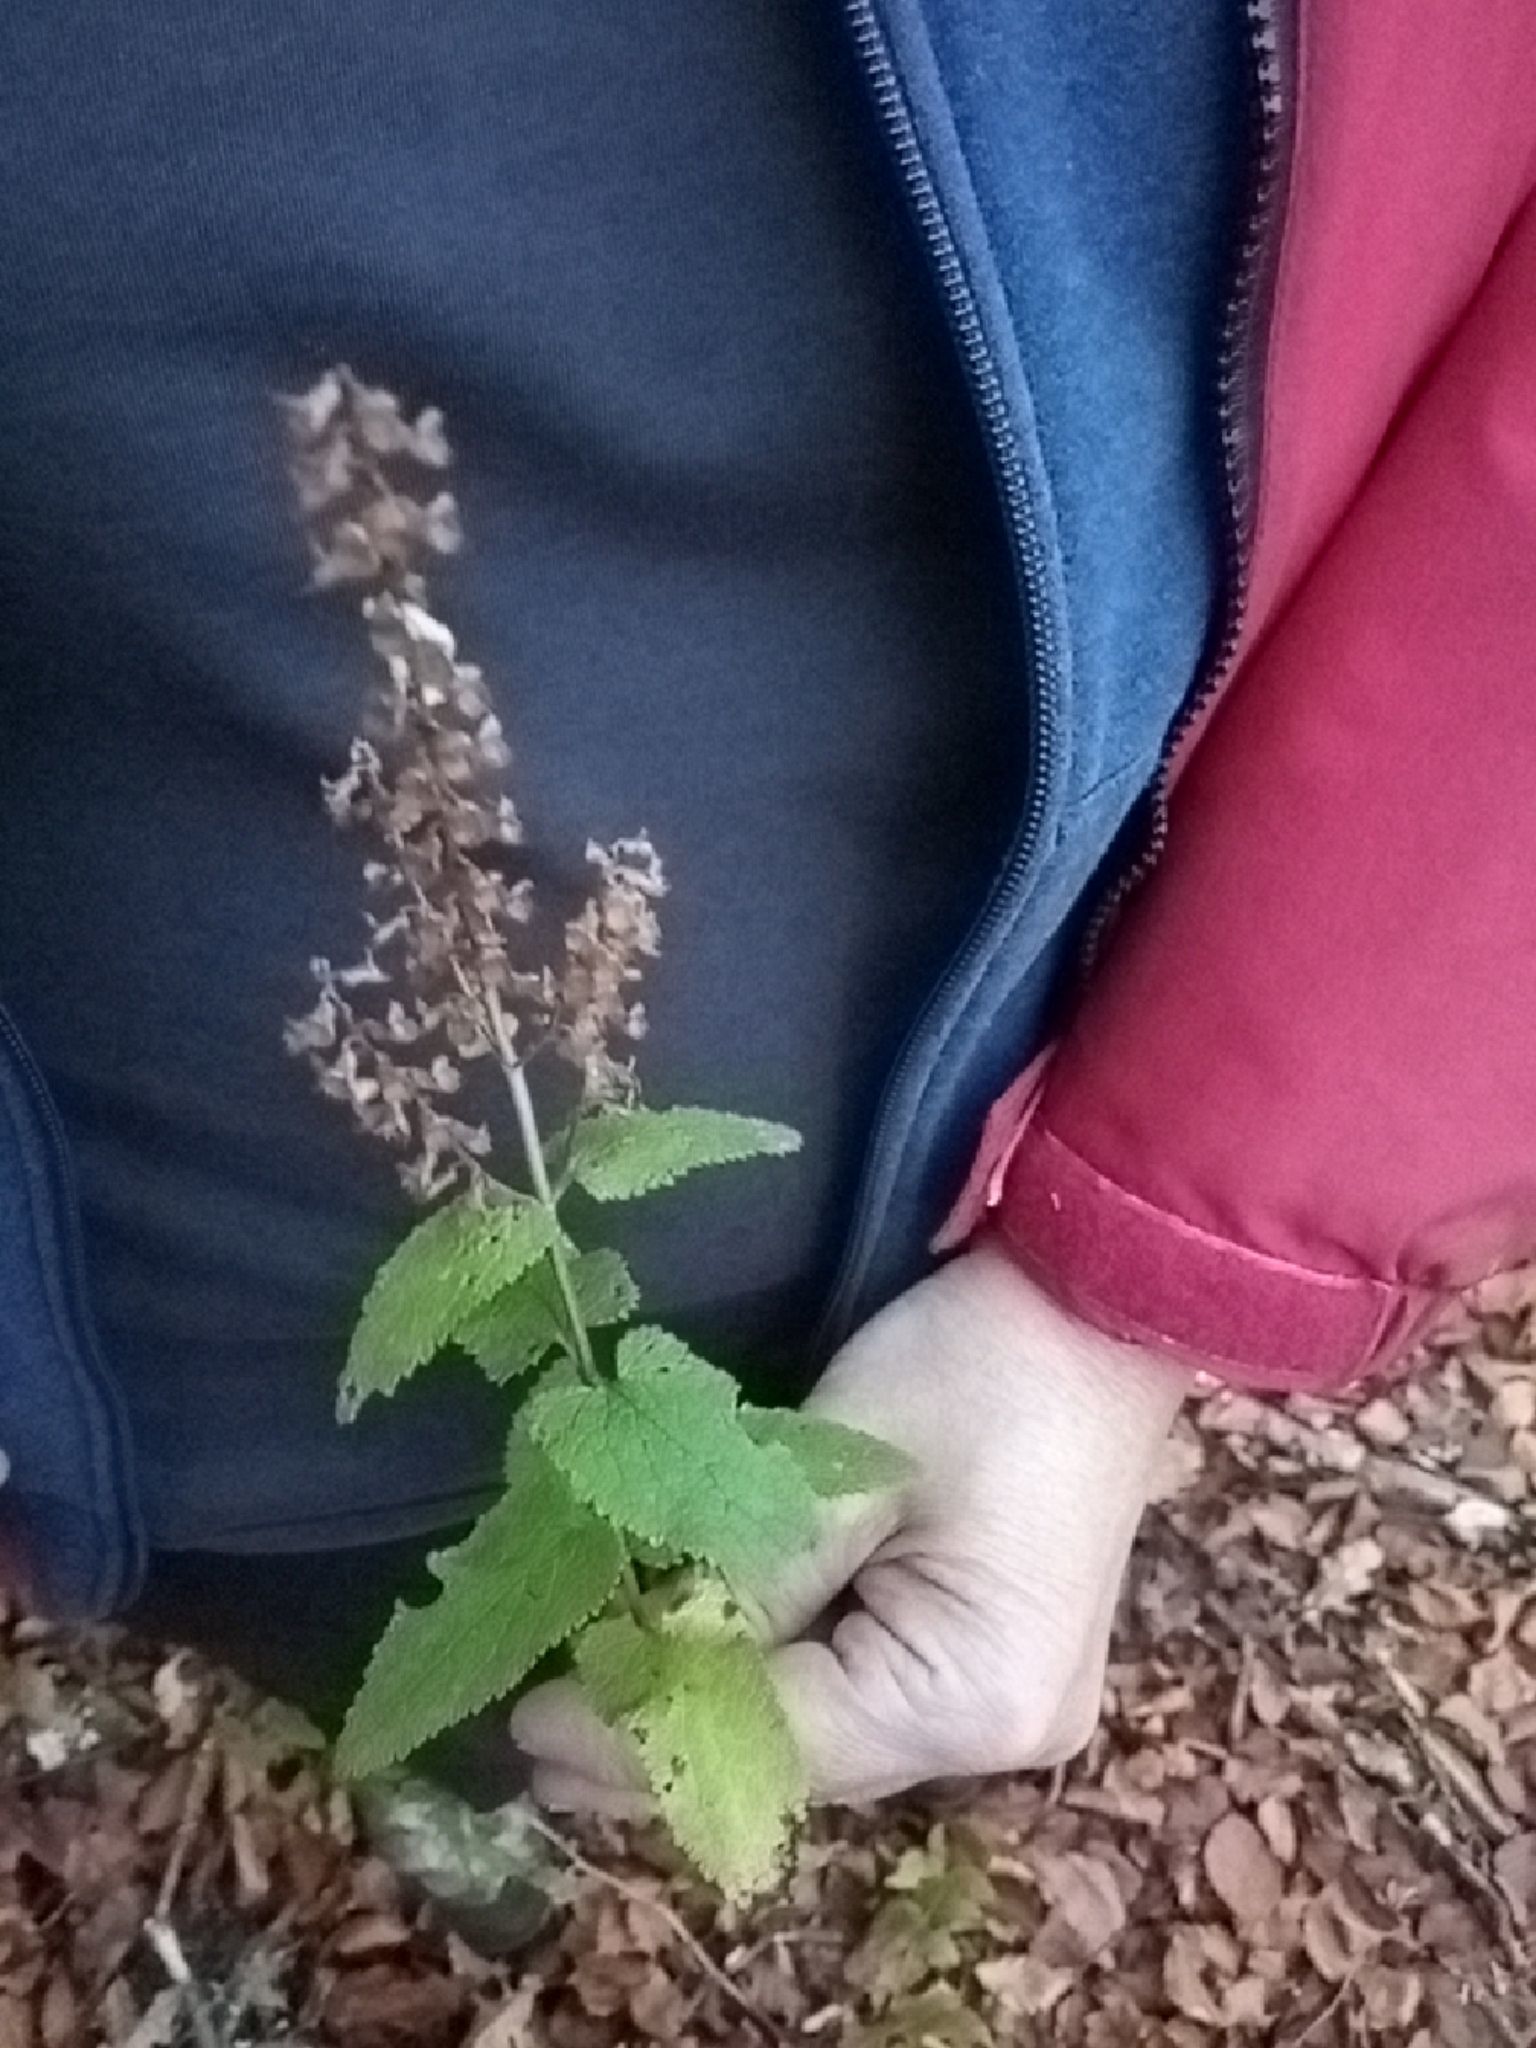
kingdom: Plantae
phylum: Tracheophyta
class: Magnoliopsida
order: Lamiales
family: Lamiaceae
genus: Teucrium
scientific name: Teucrium scorodonia
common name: Woodland germander
